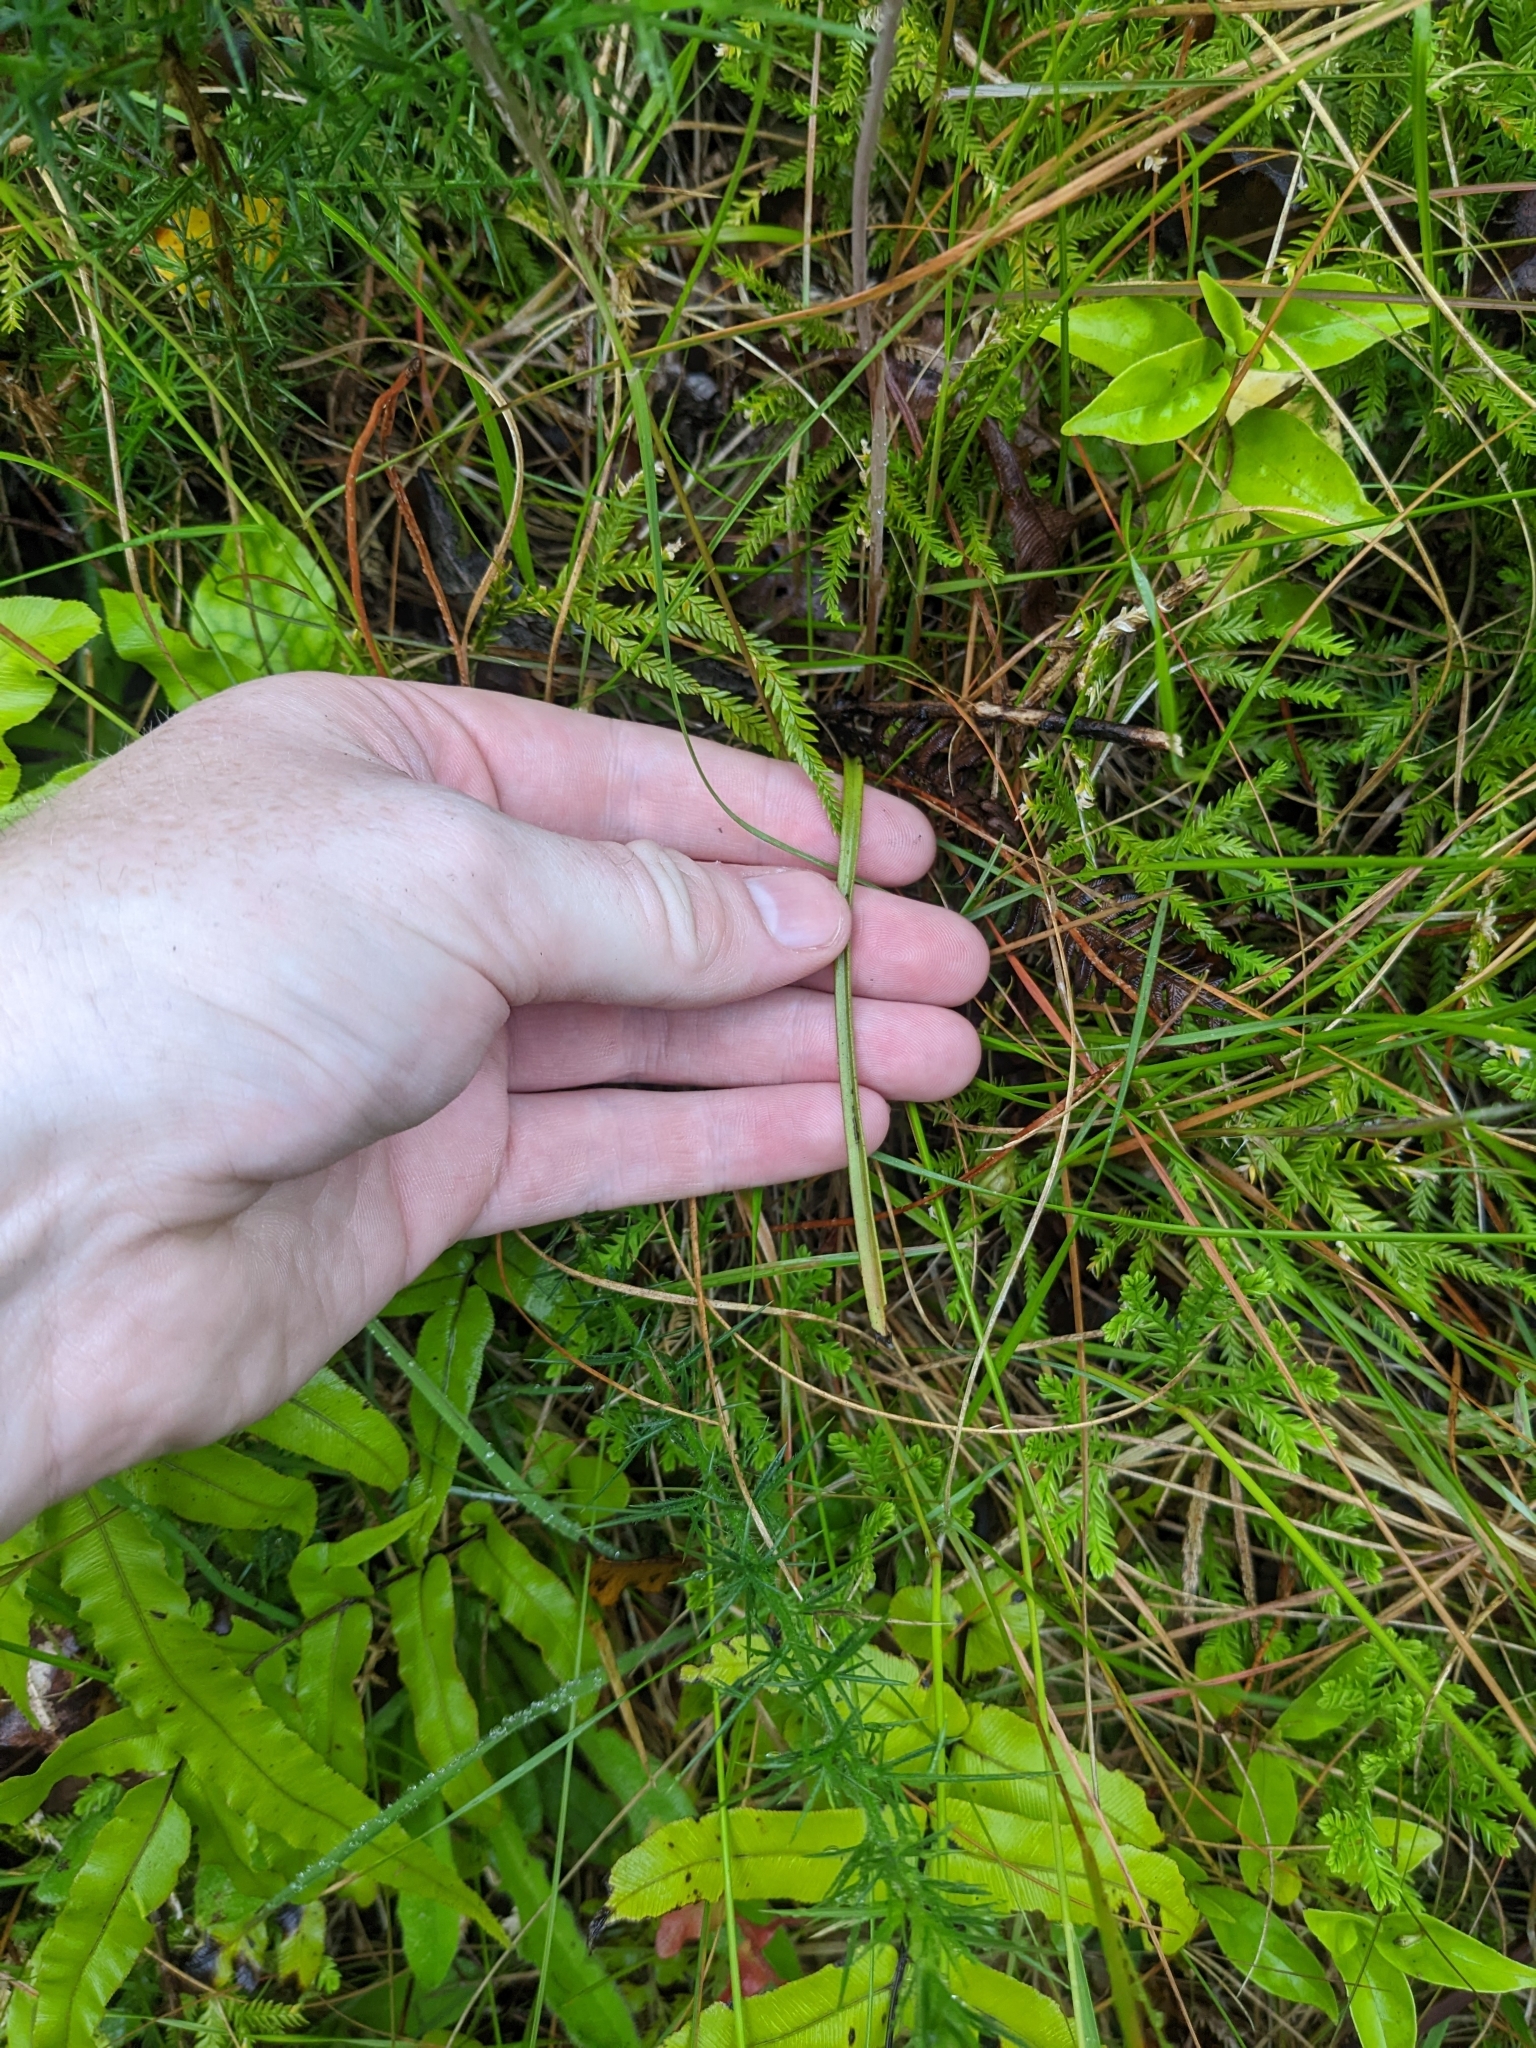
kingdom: Plantae
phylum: Tracheophyta
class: Liliopsida
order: Asparagales
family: Orchidaceae
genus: Thelymitra
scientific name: Thelymitra pauciflora
